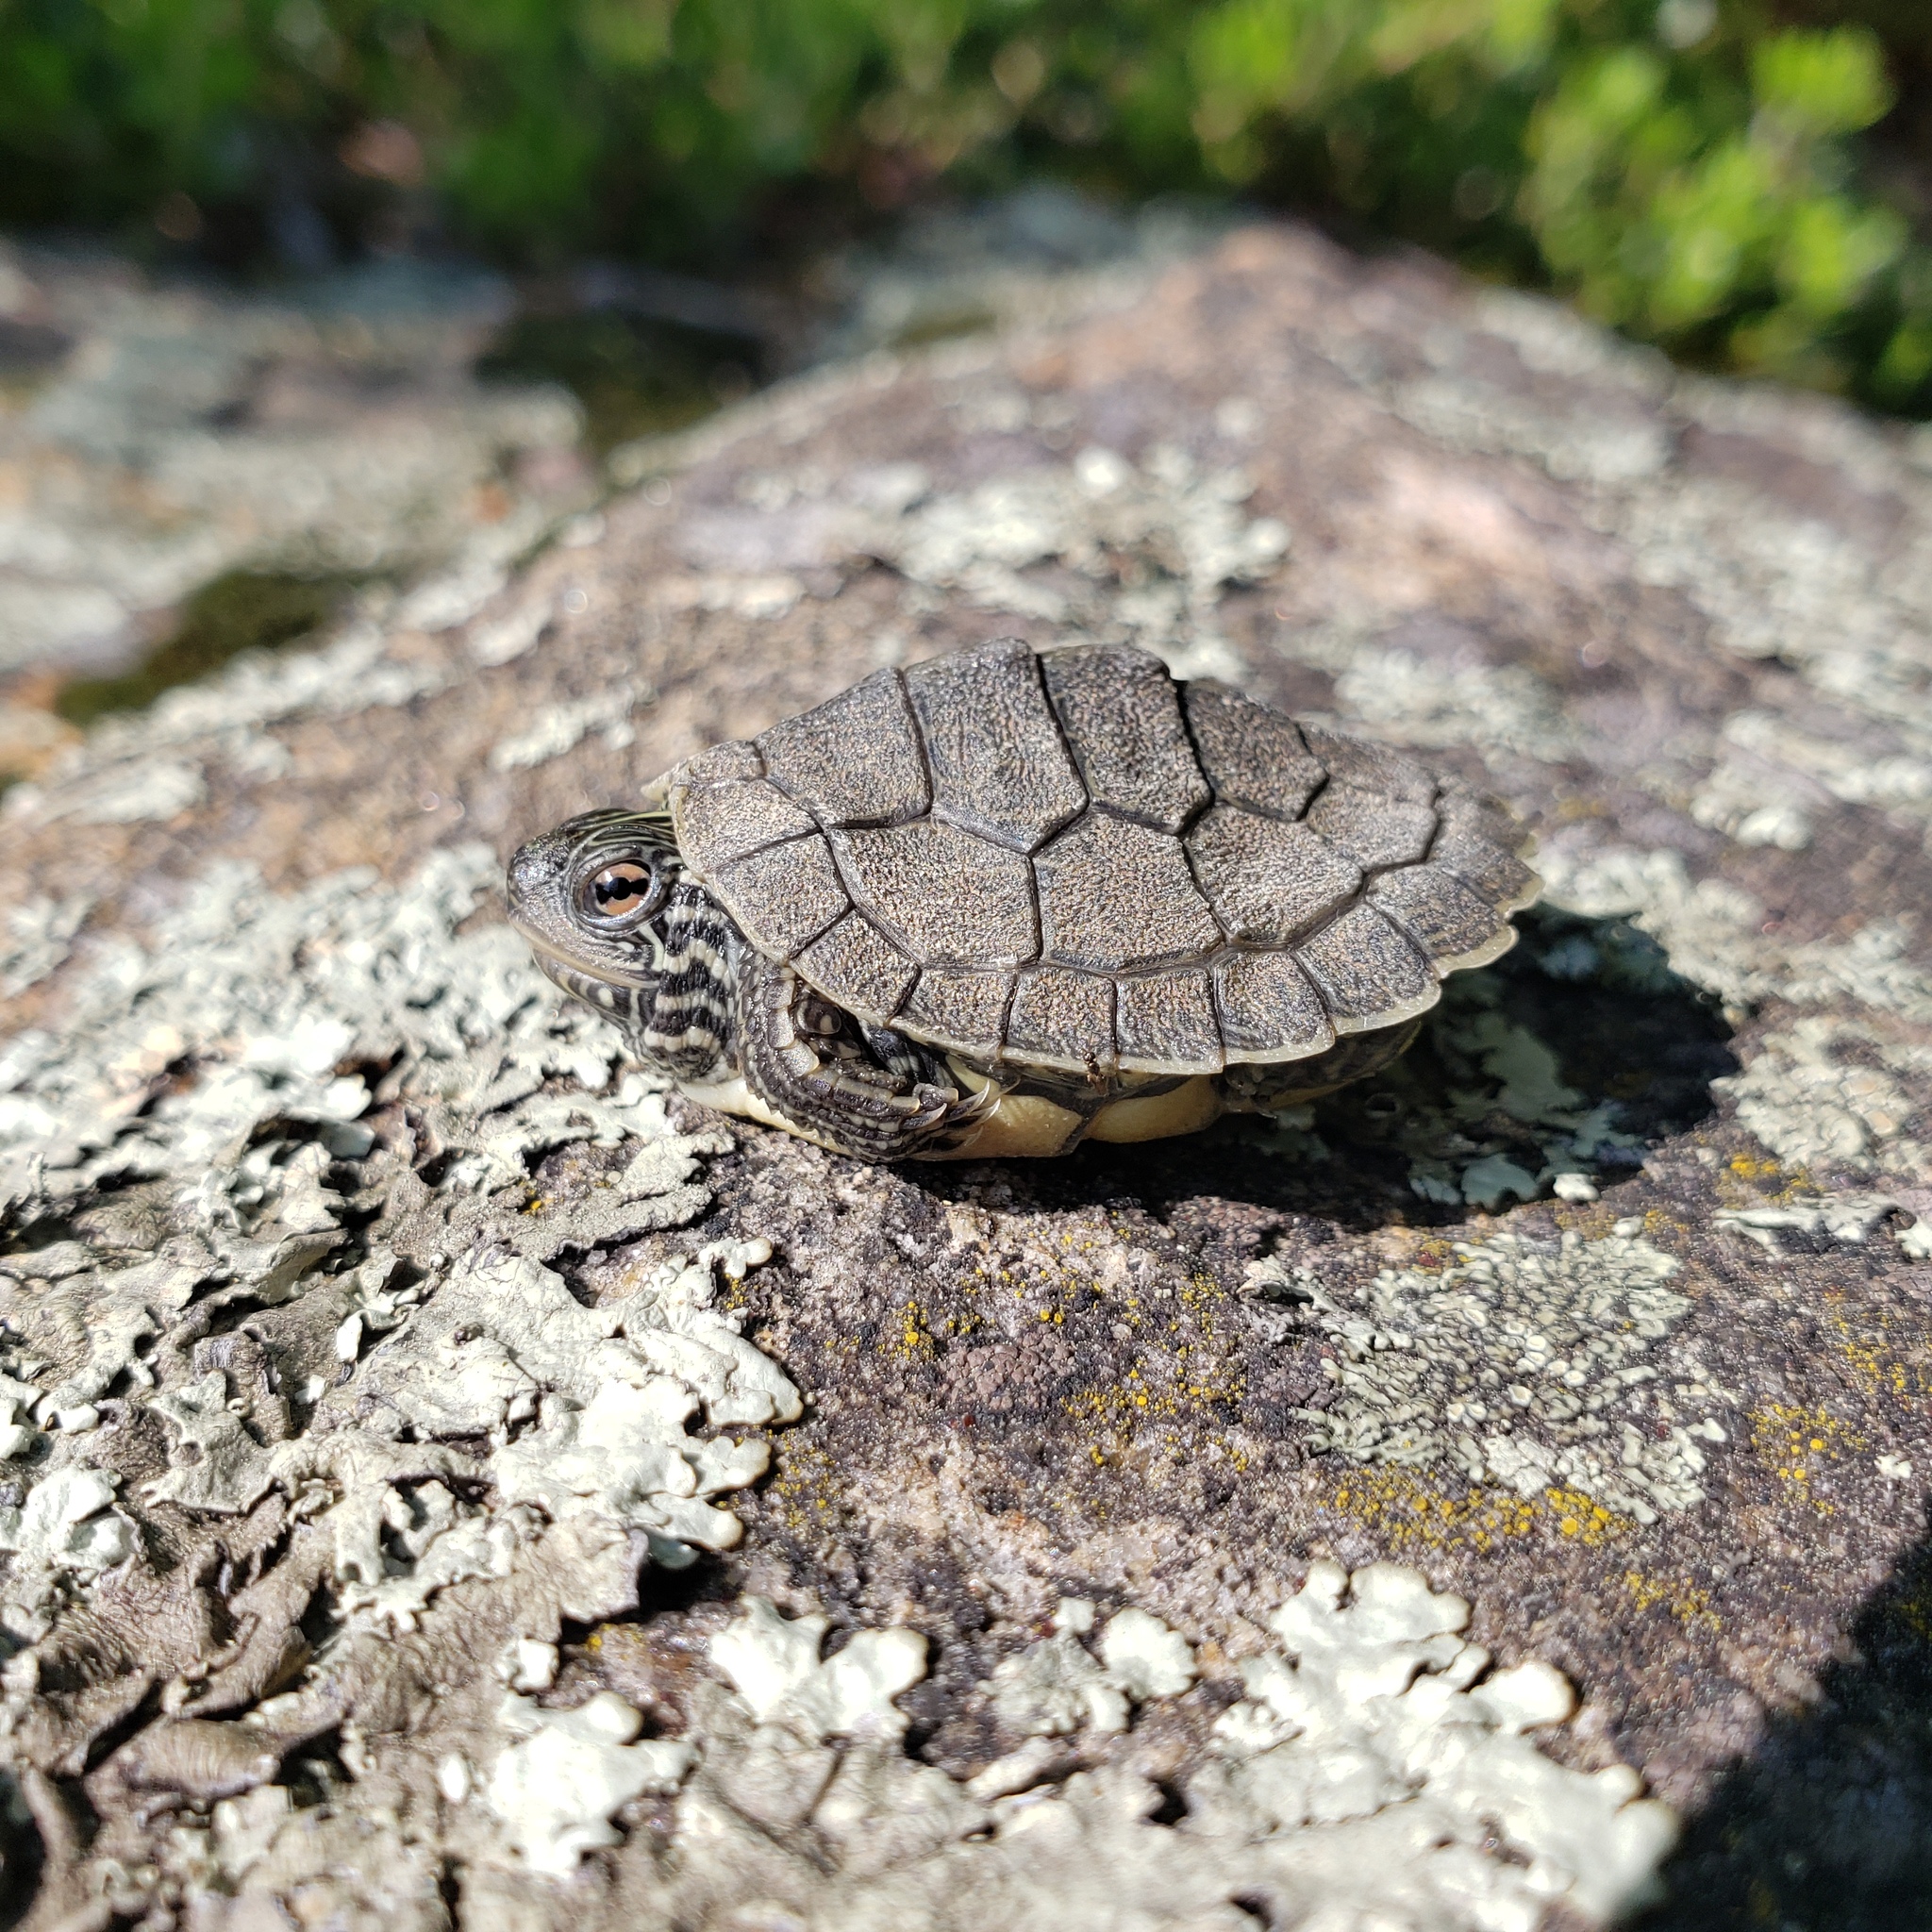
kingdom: Animalia
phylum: Chordata
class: Testudines
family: Emydidae
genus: Graptemys
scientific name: Graptemys geographica
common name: Common map turtle
